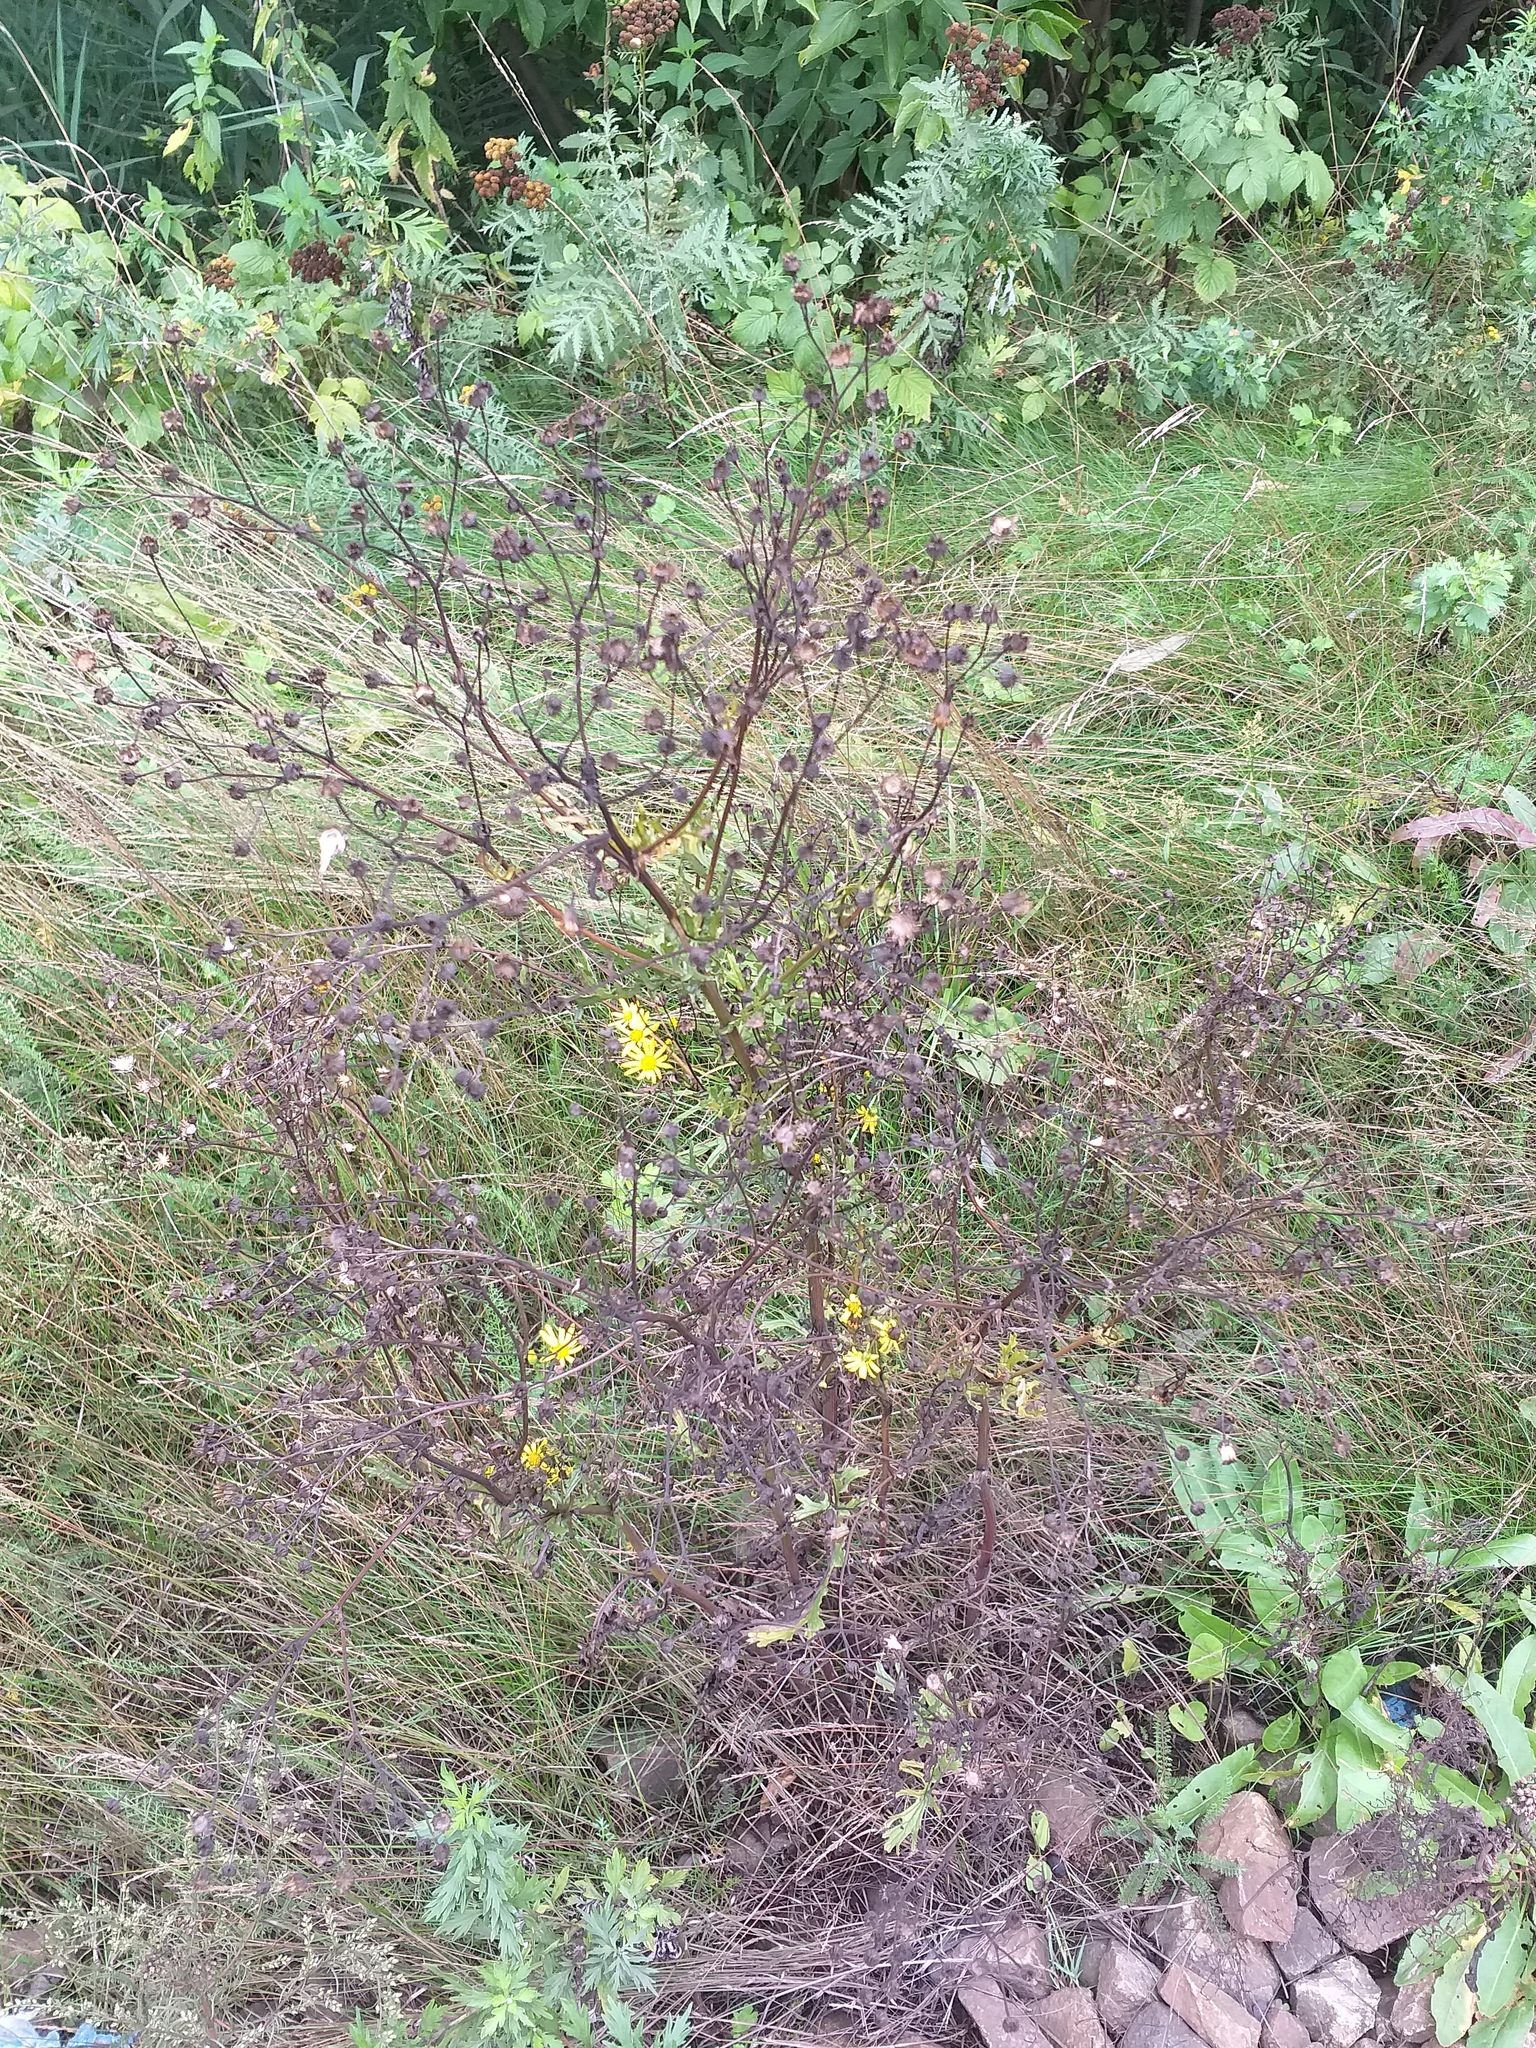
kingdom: Plantae
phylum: Tracheophyta
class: Magnoliopsida
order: Asterales
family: Asteraceae
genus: Jacobaea
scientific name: Jacobaea vulgaris
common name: Stinking willie
